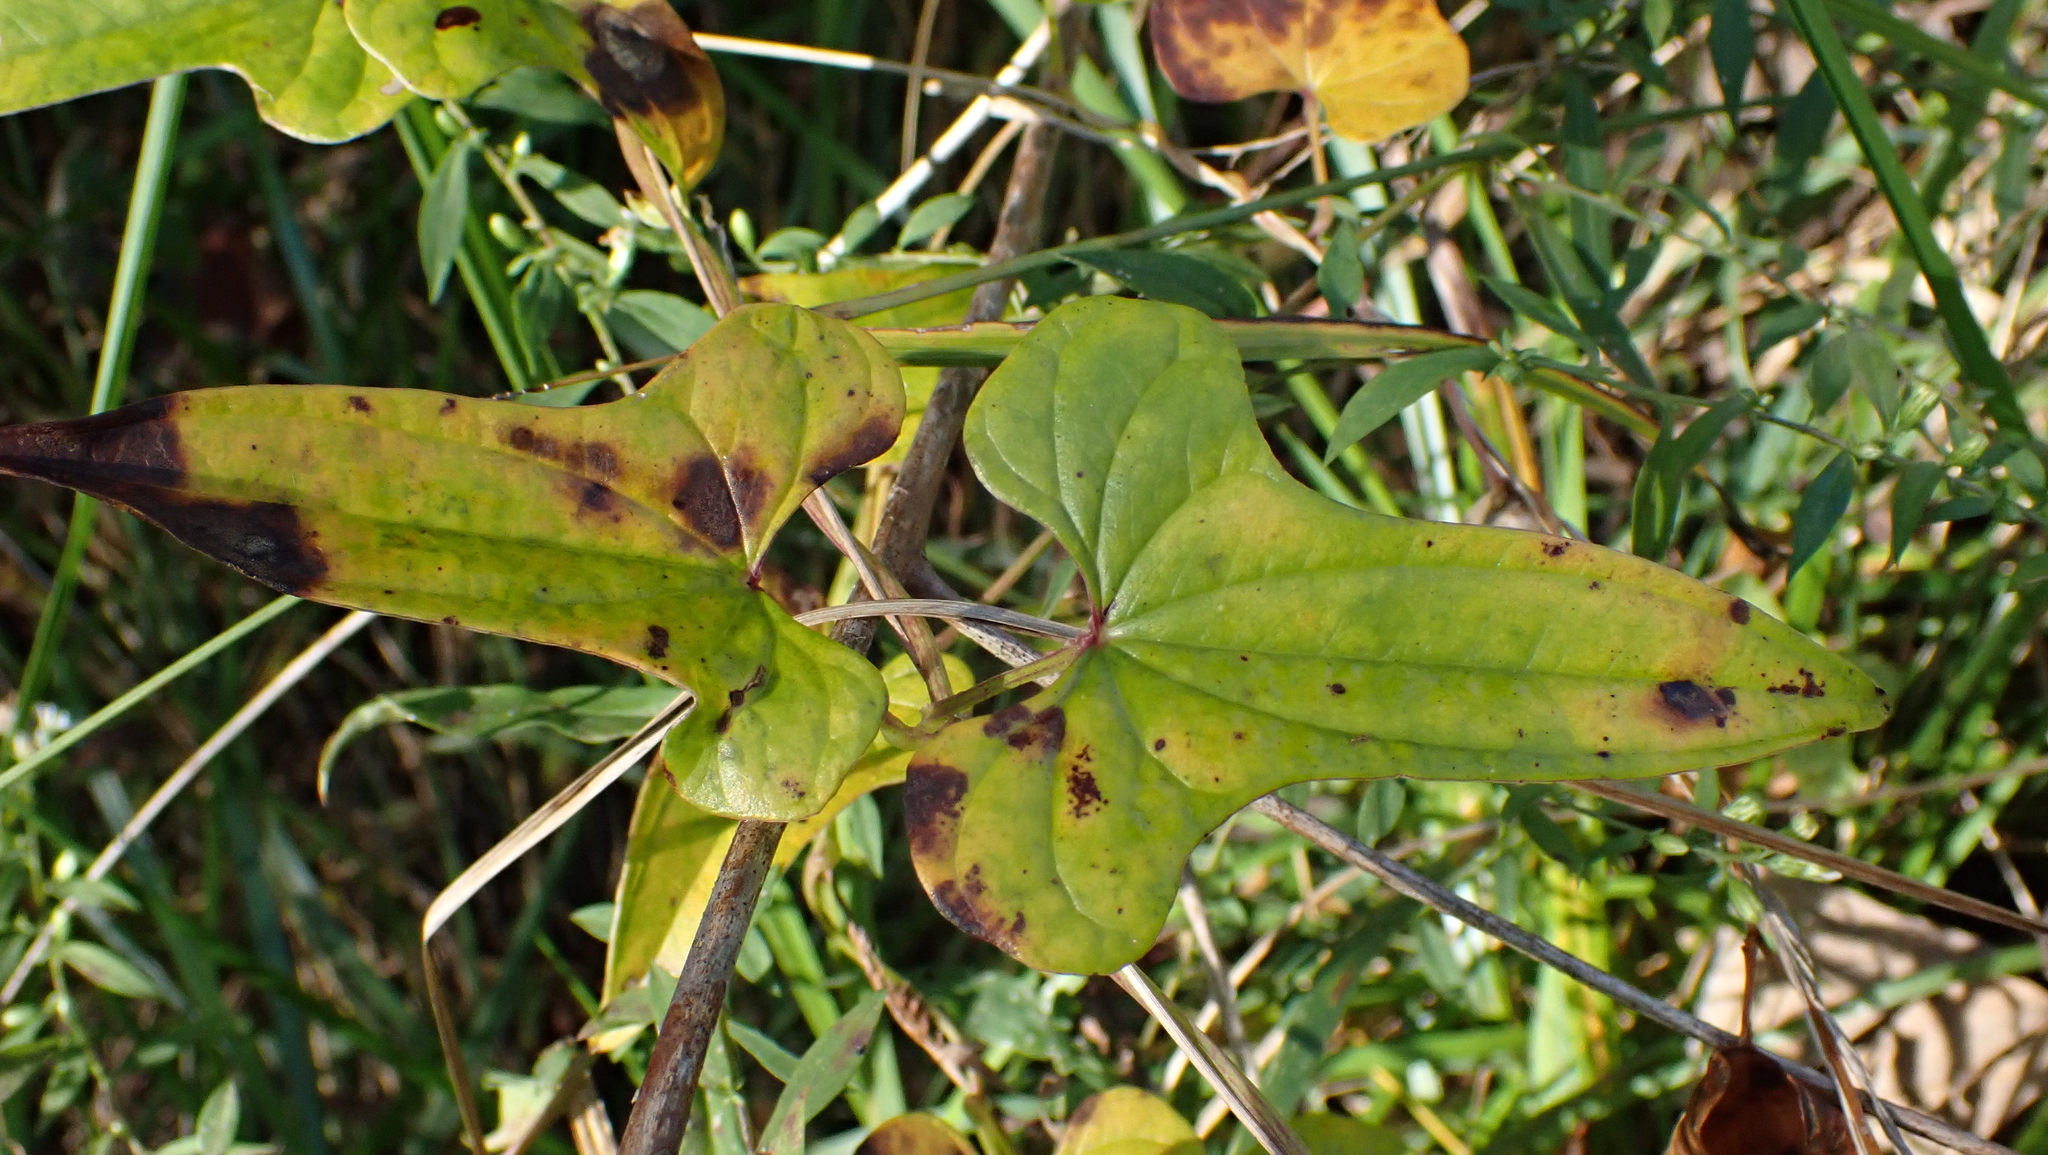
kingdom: Plantae
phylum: Tracheophyta
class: Liliopsida
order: Dioscoreales
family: Dioscoreaceae
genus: Dioscorea
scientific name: Dioscorea polystachya
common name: Chinese yam
